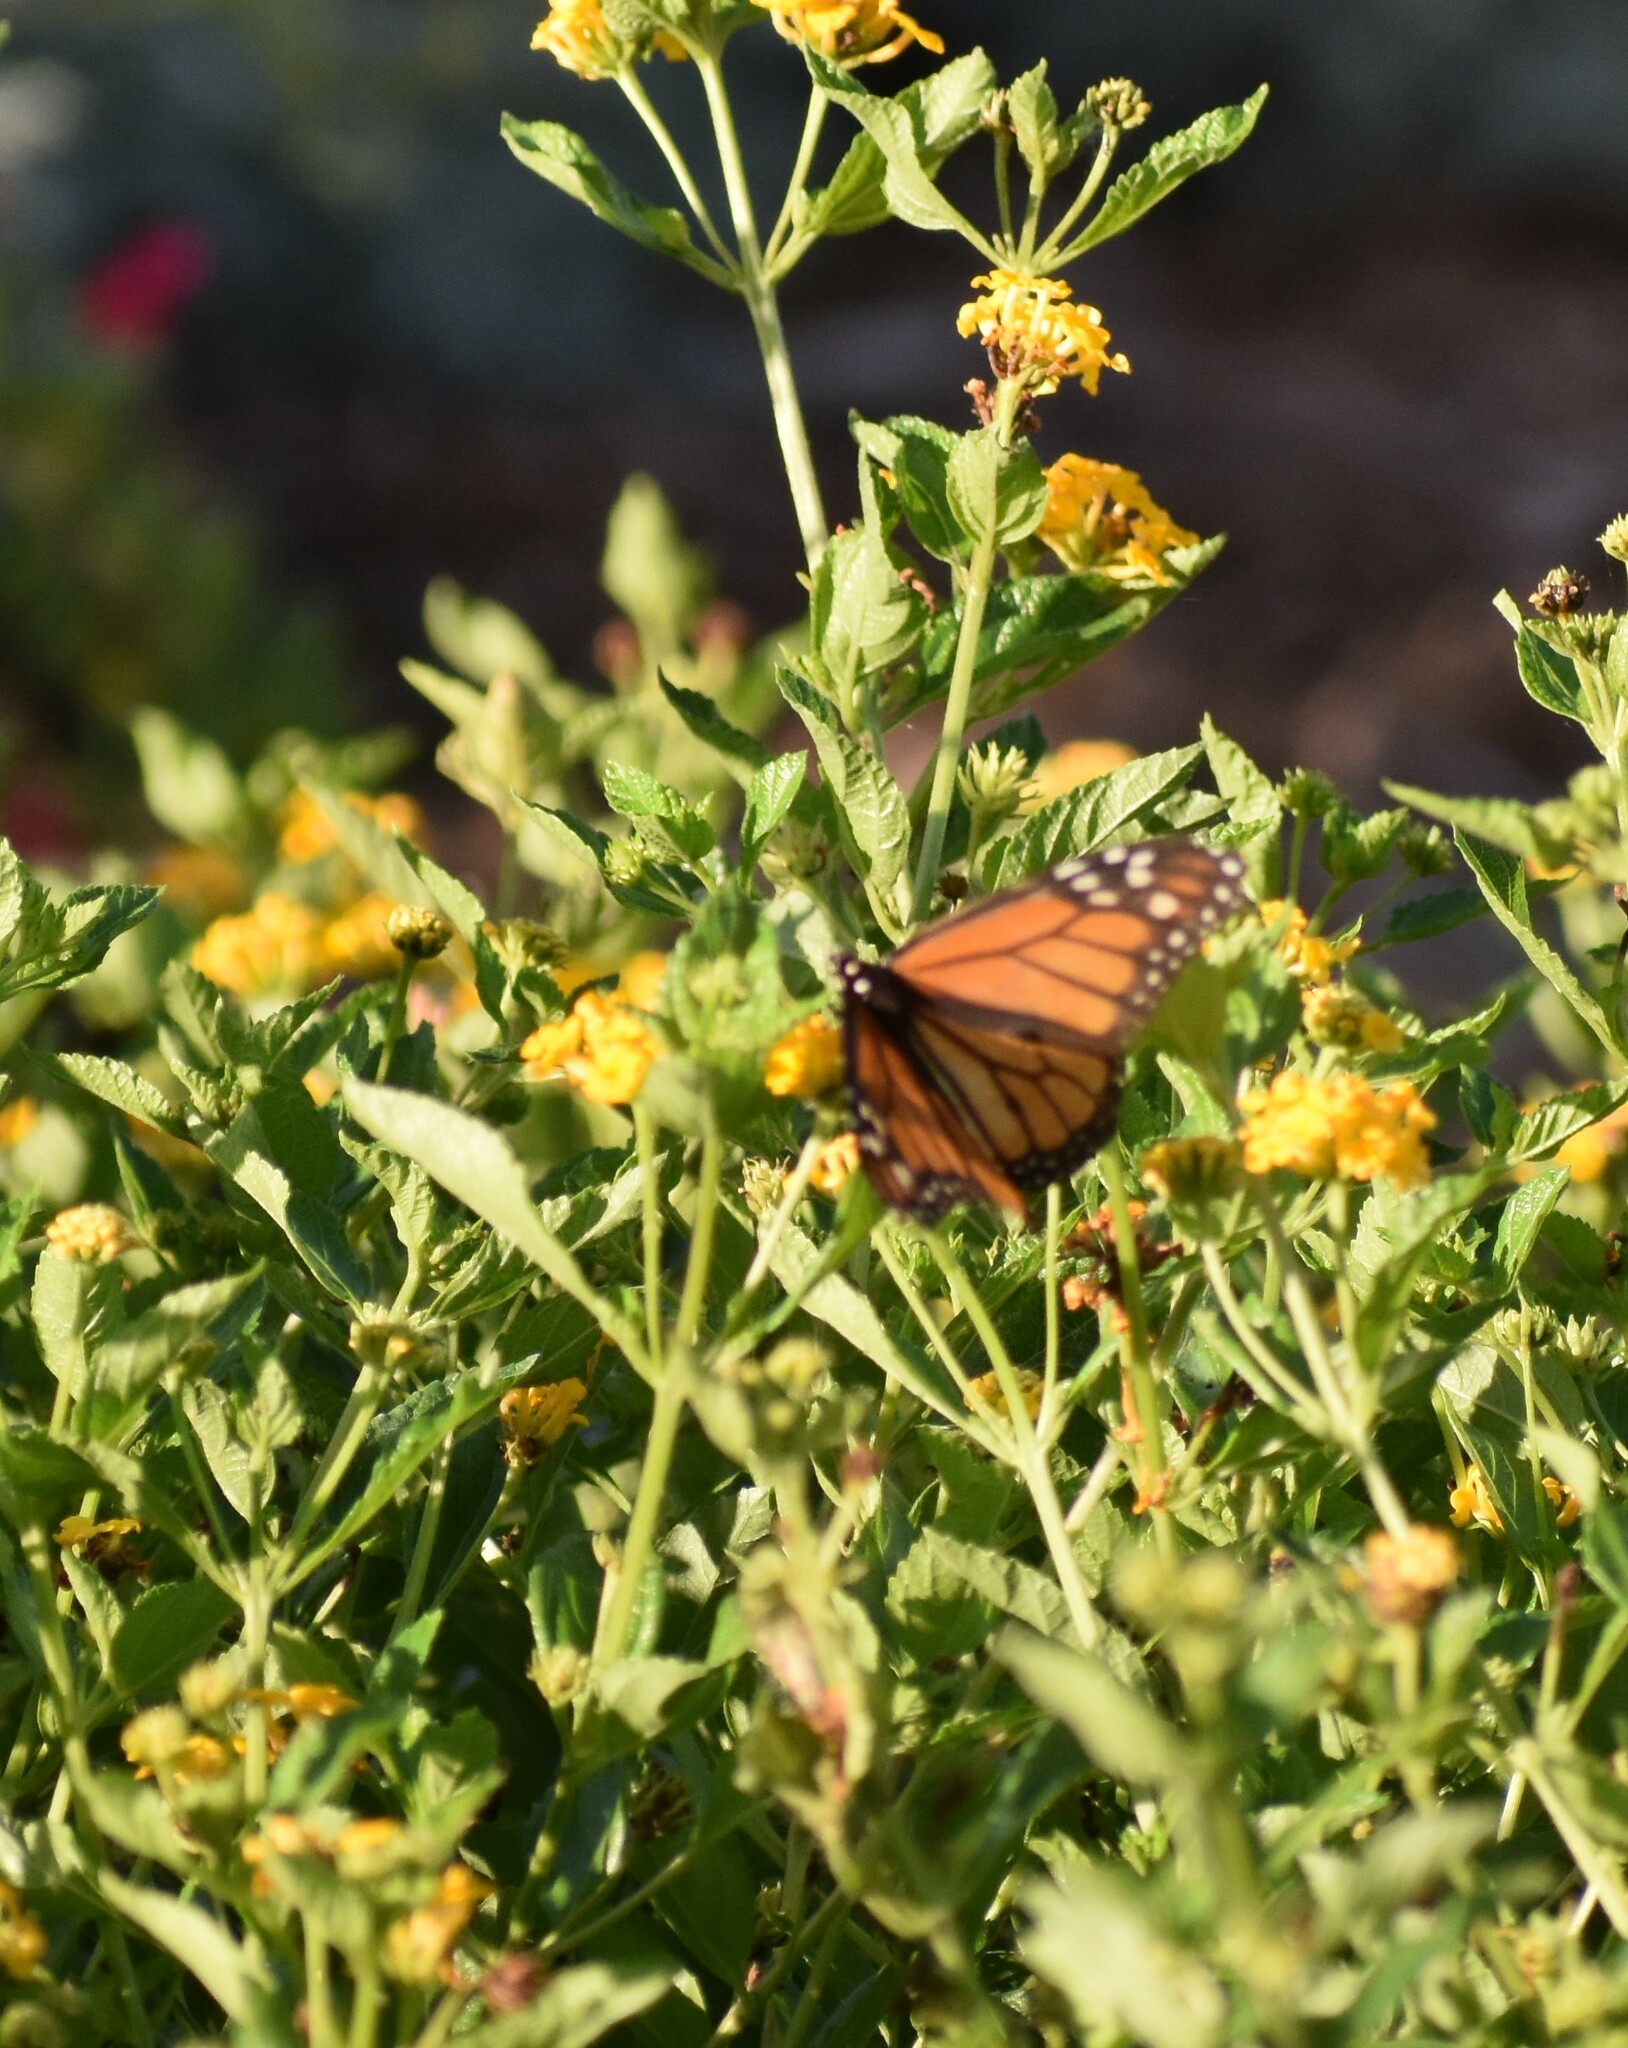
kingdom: Animalia
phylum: Arthropoda
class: Insecta
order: Lepidoptera
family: Nymphalidae
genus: Danaus
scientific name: Danaus plexippus
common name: Monarch
